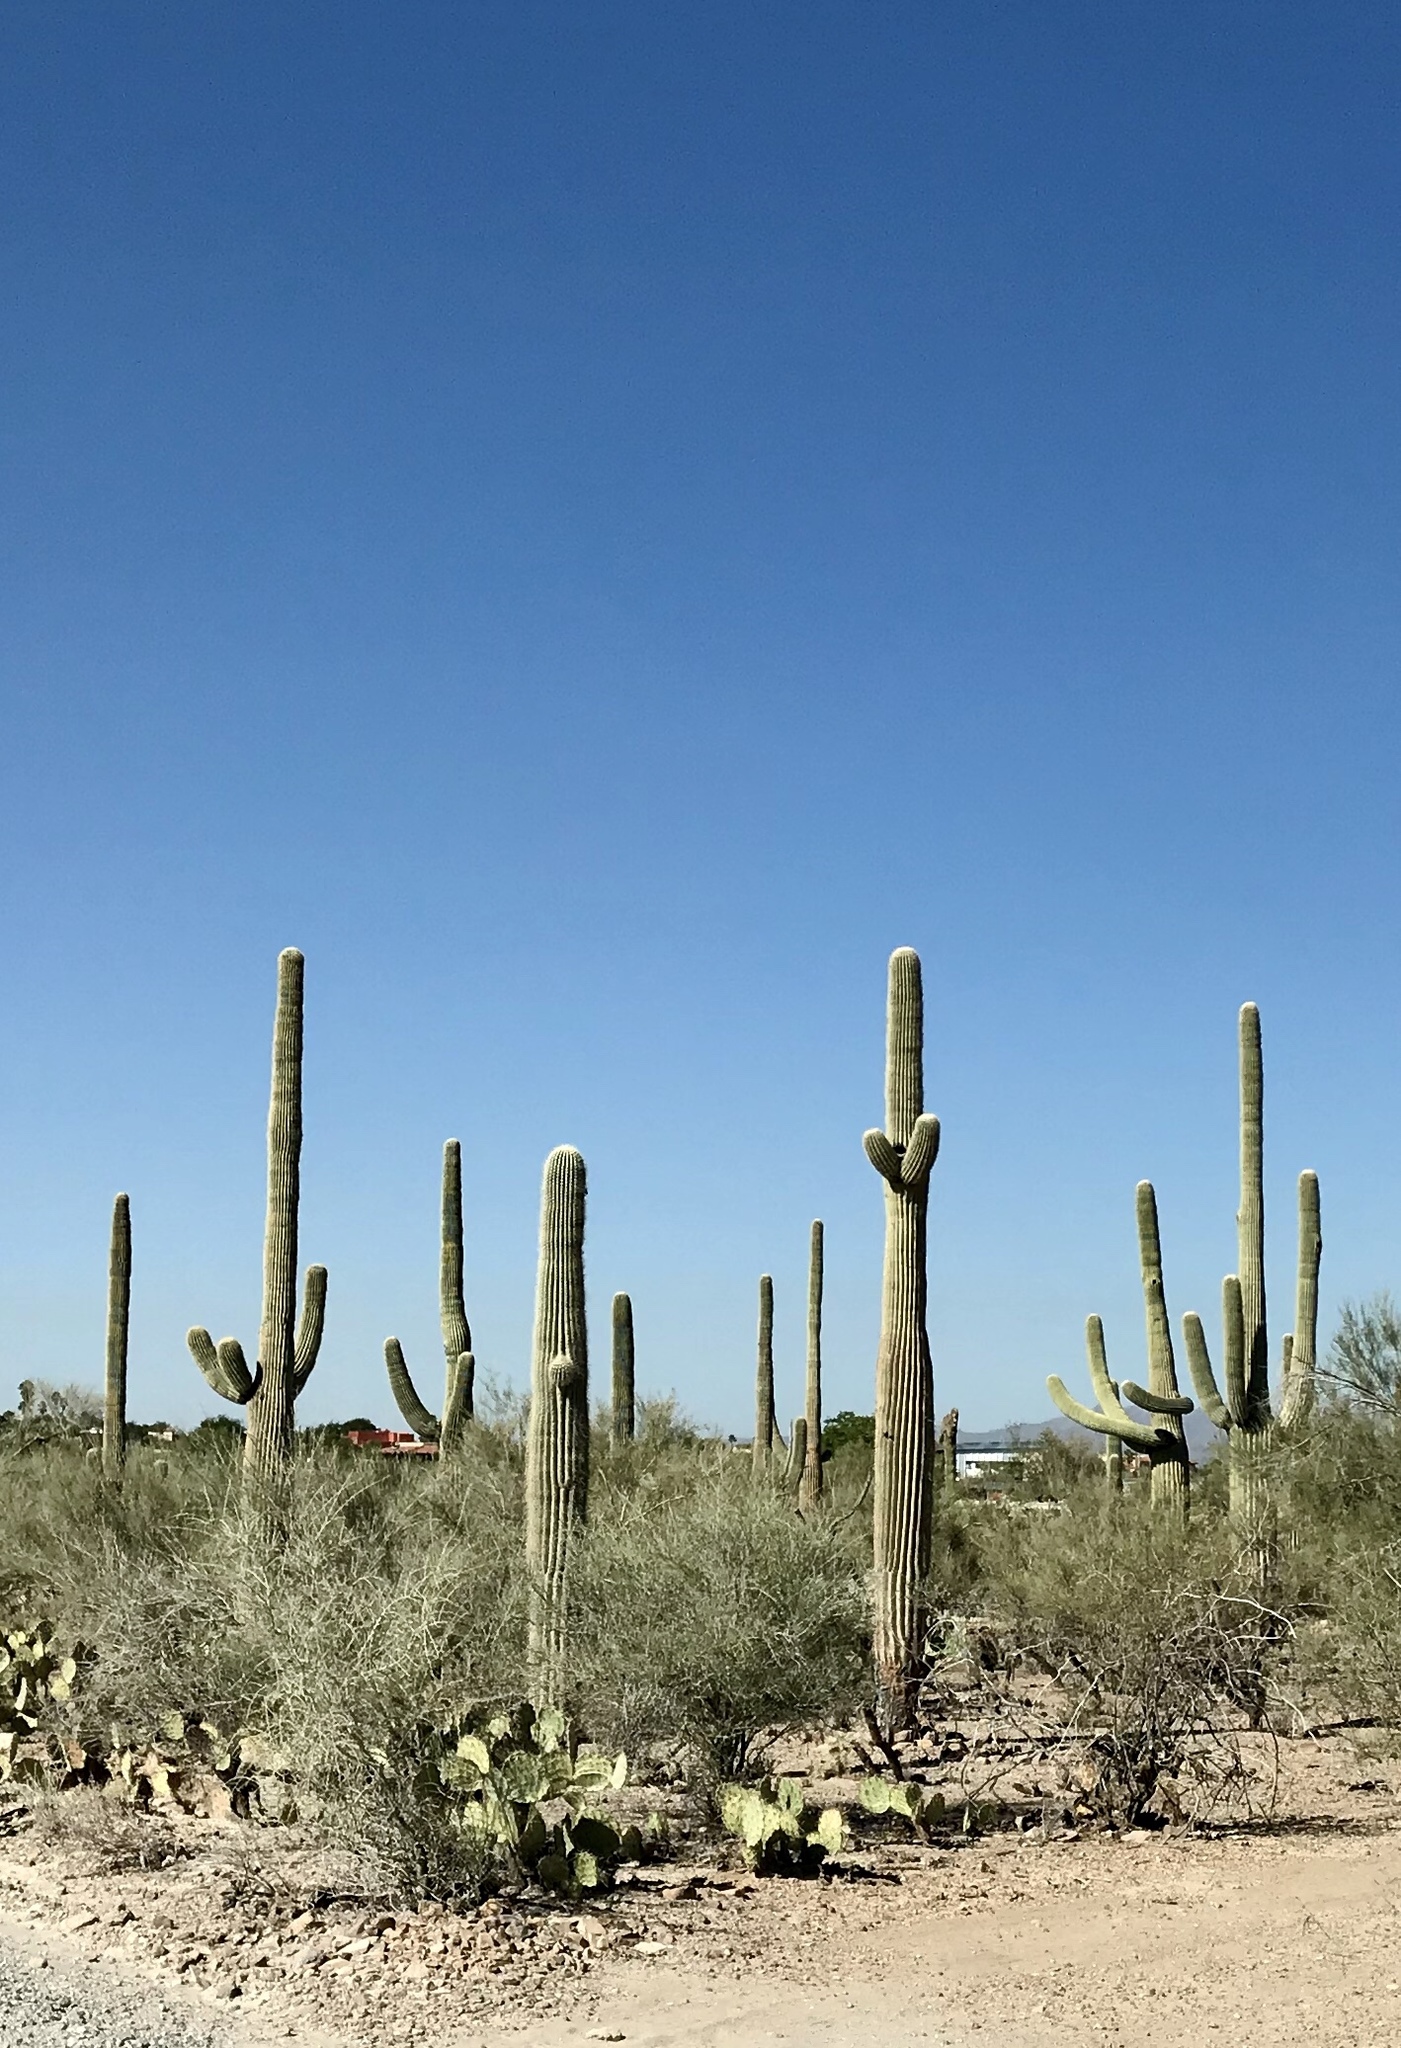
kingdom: Plantae
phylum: Tracheophyta
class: Magnoliopsida
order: Caryophyllales
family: Cactaceae
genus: Carnegiea
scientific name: Carnegiea gigantea
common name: Saguaro
